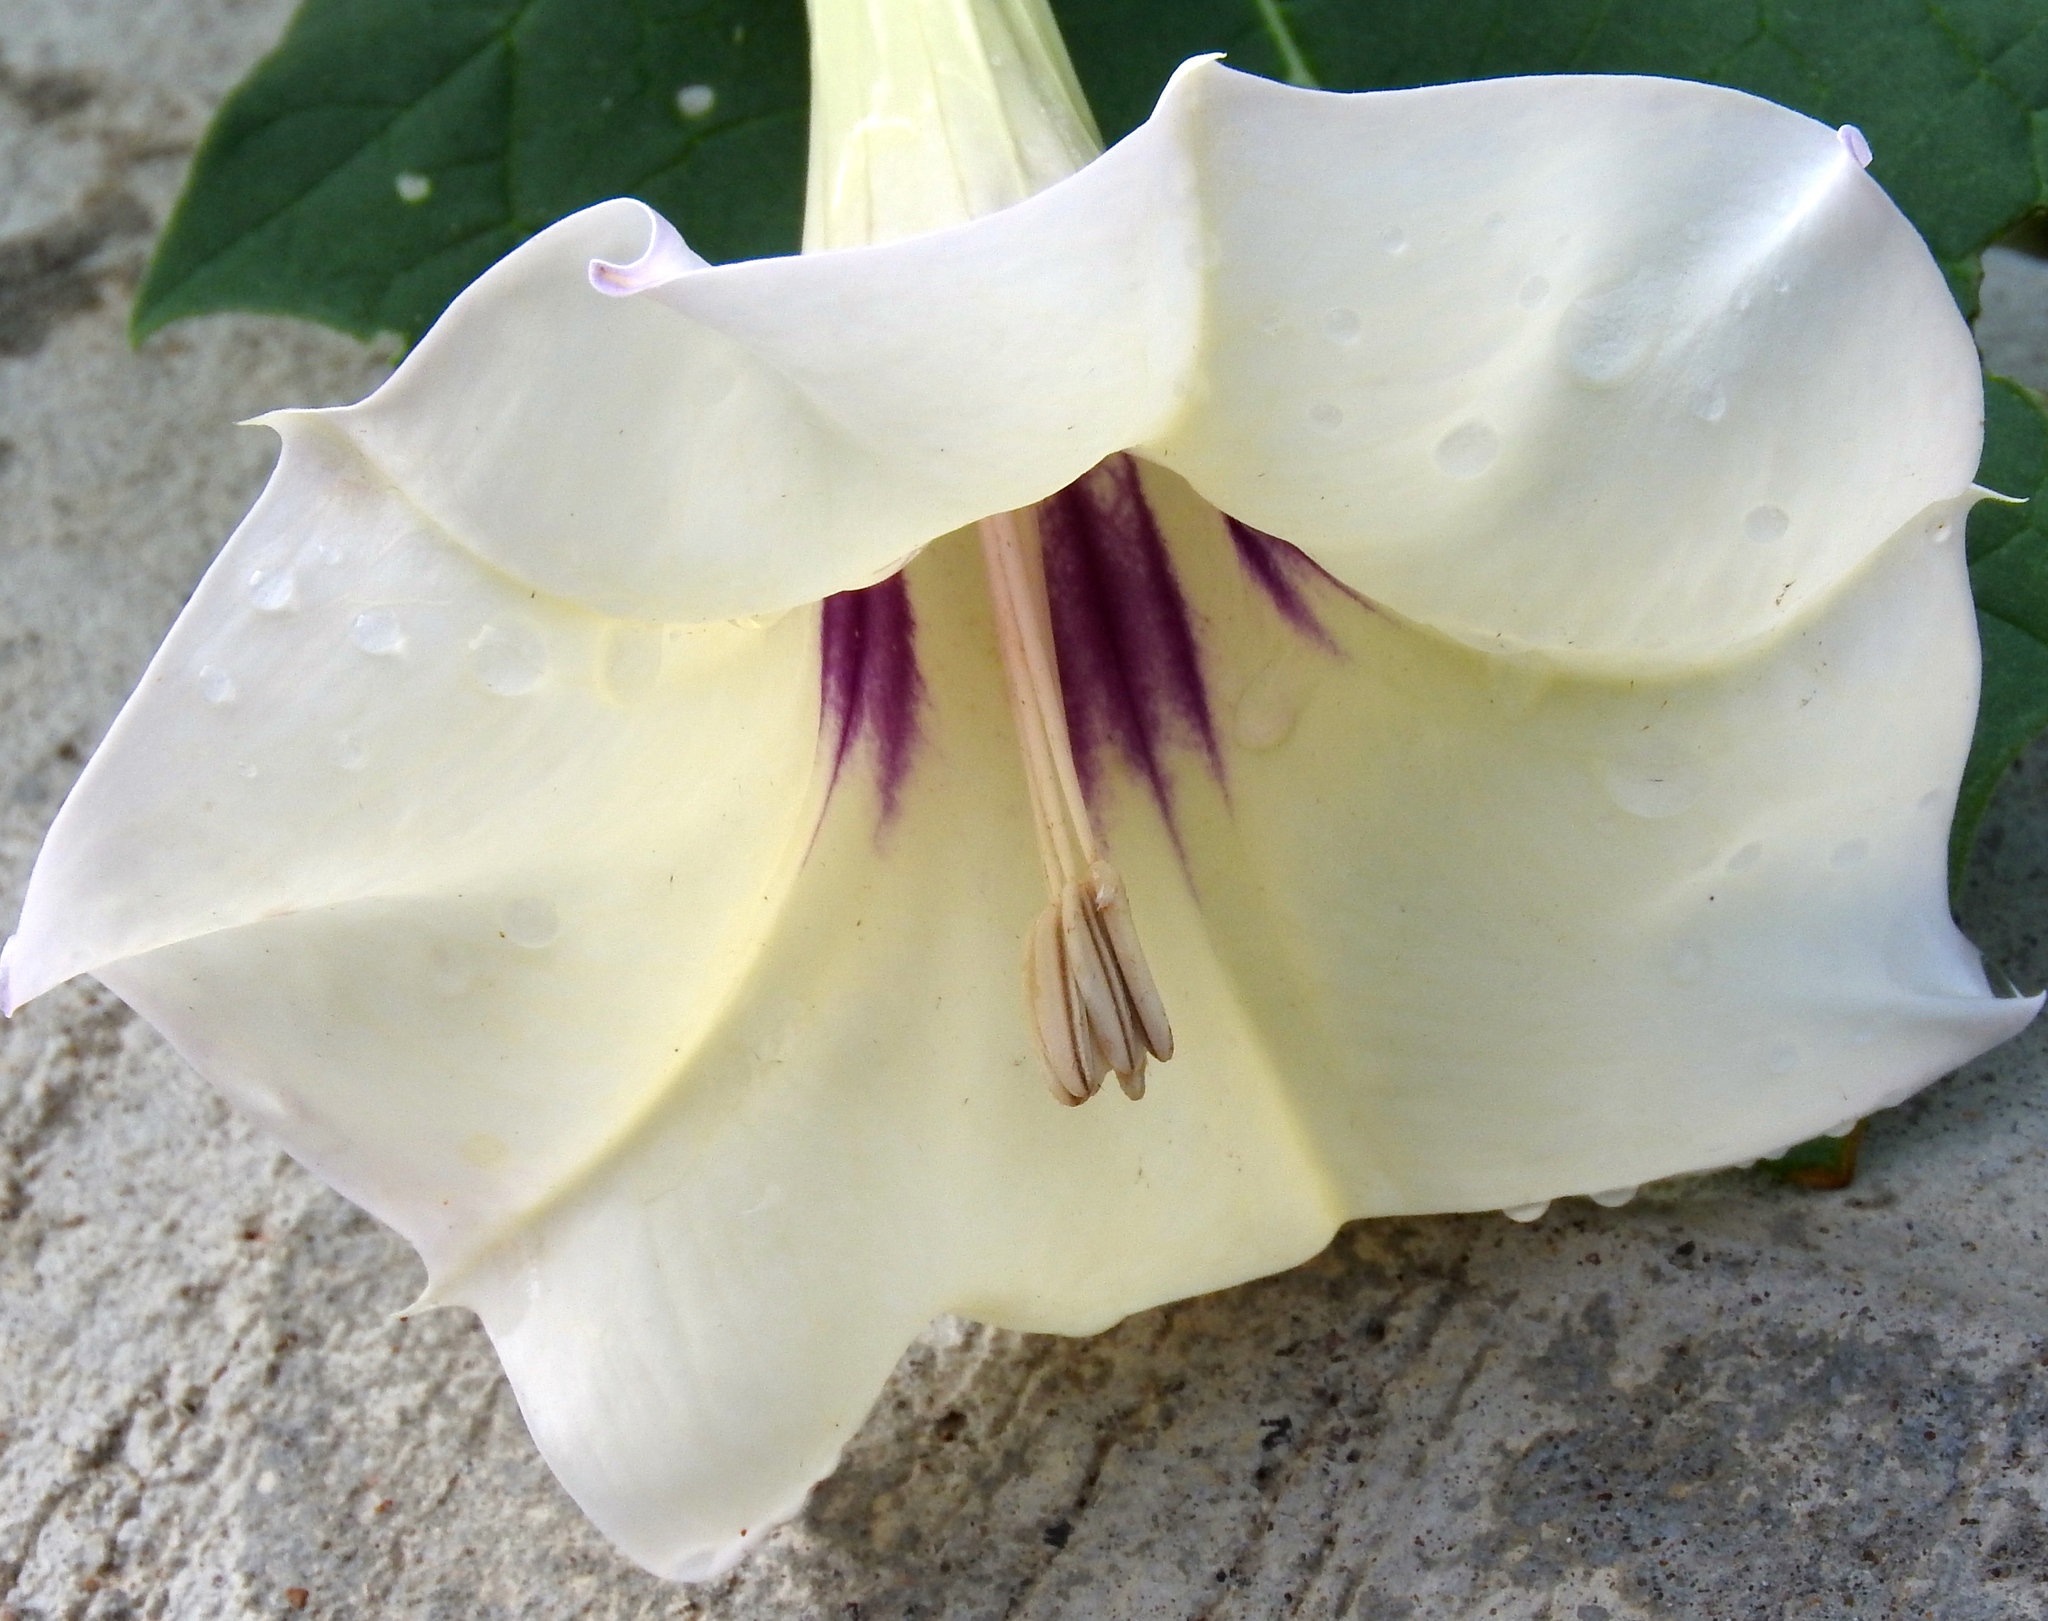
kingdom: Plantae
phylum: Tracheophyta
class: Magnoliopsida
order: Solanales
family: Solanaceae
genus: Datura
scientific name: Datura discolor
